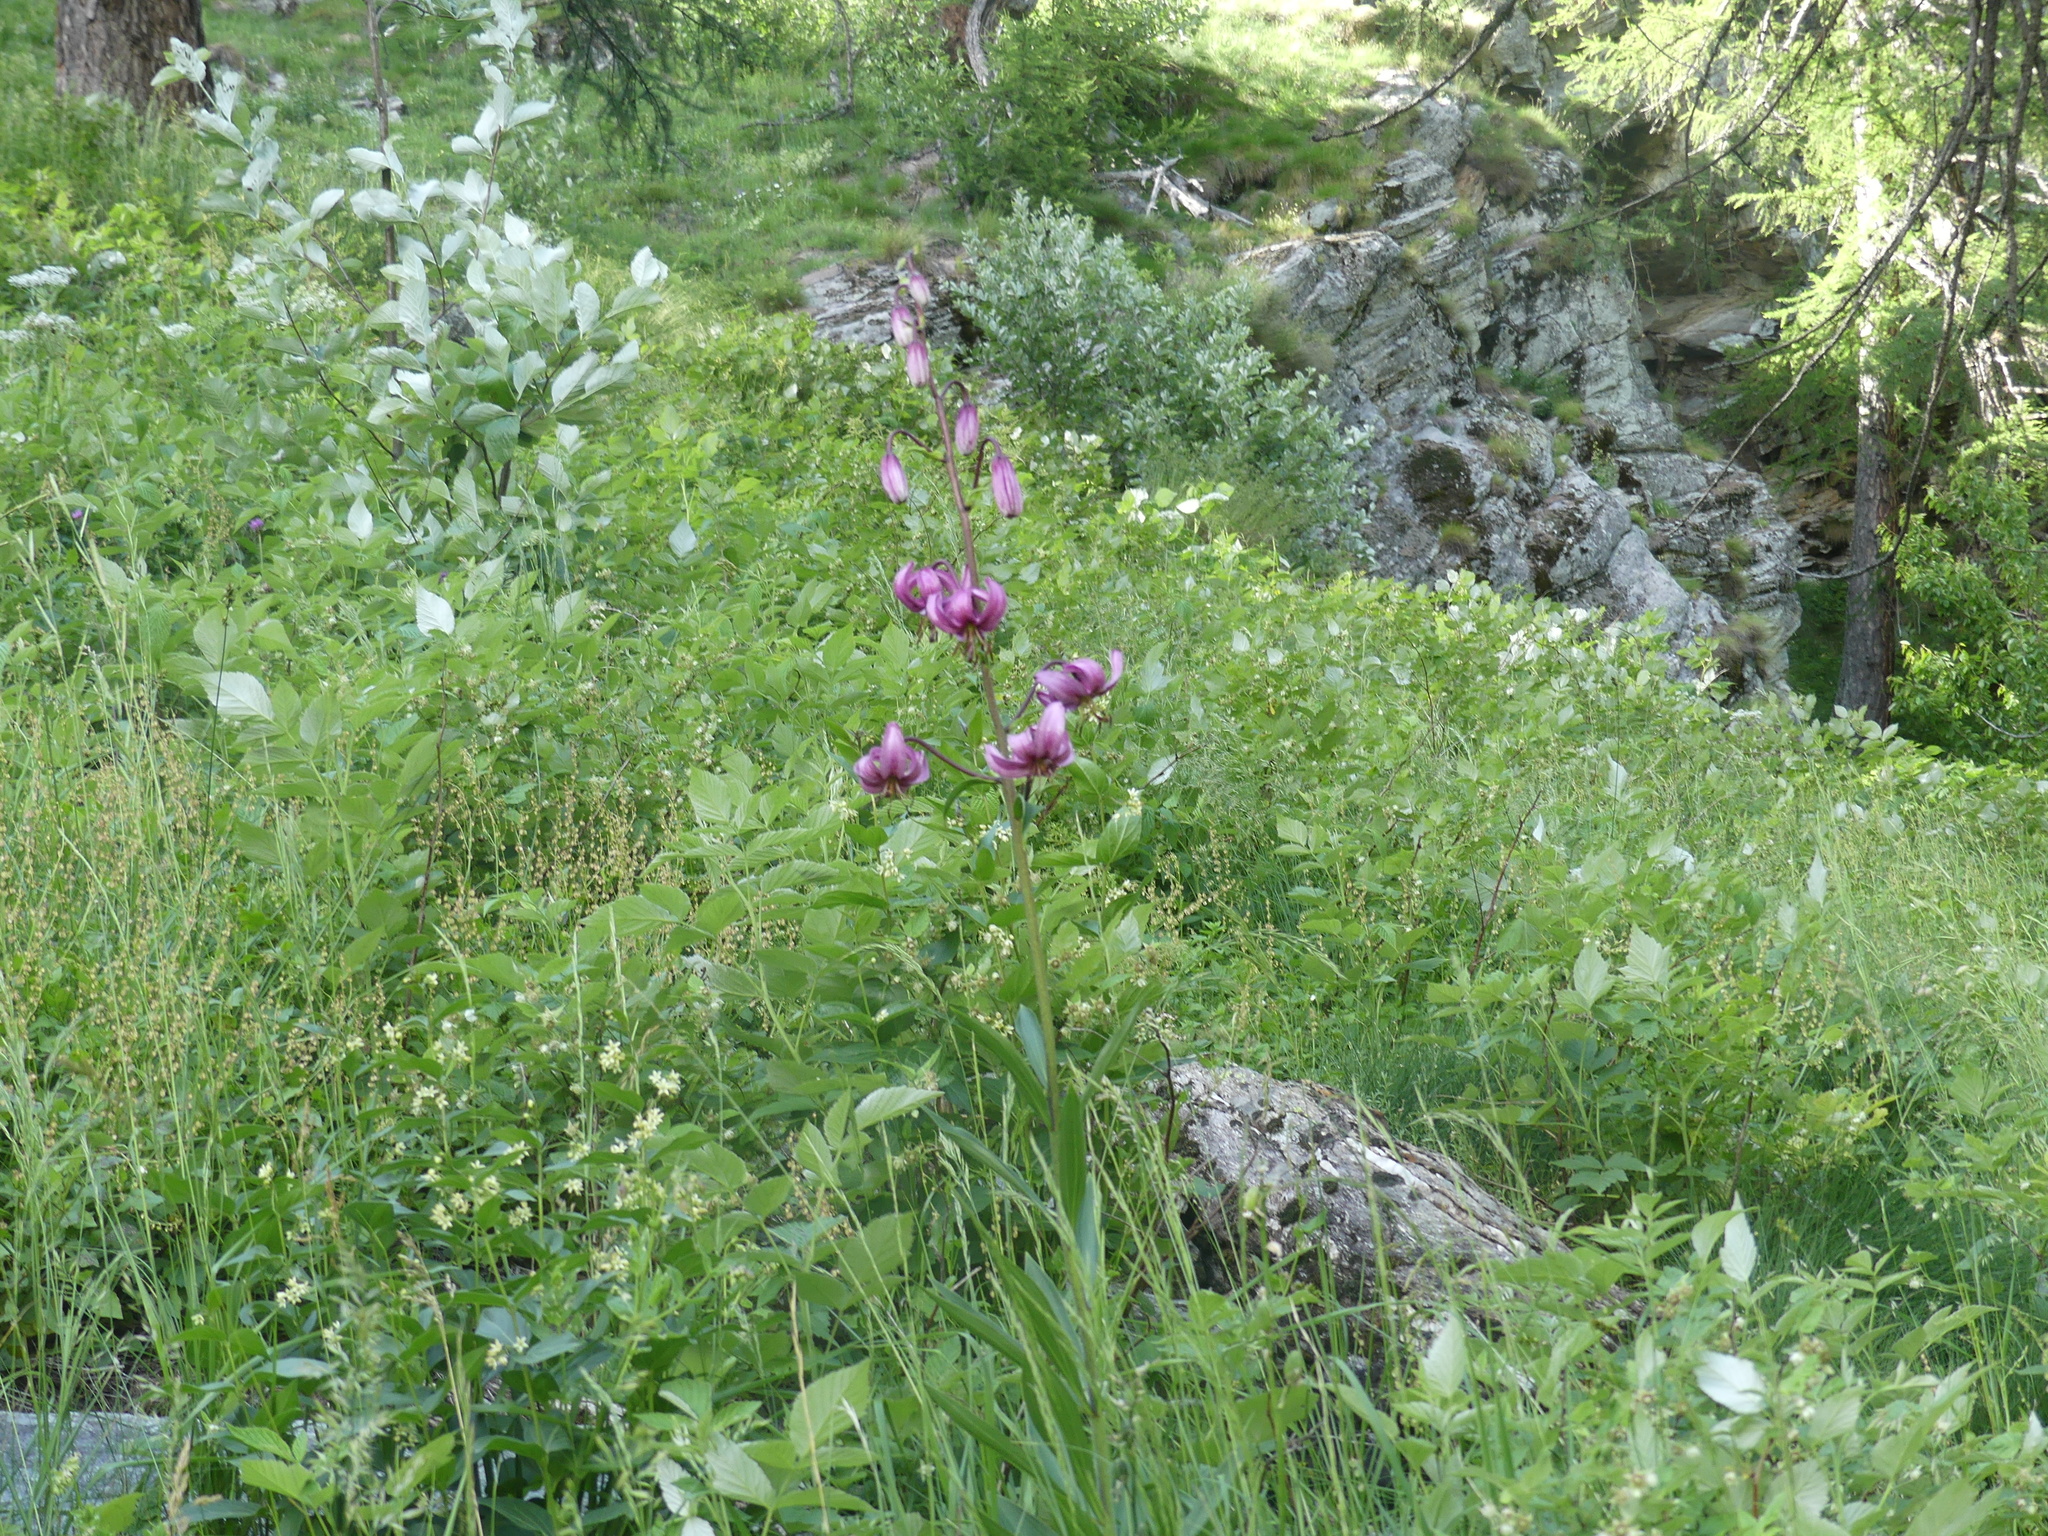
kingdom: Plantae
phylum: Tracheophyta
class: Liliopsida
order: Liliales
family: Liliaceae
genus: Lilium
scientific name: Lilium martagon
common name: Martagon lily
